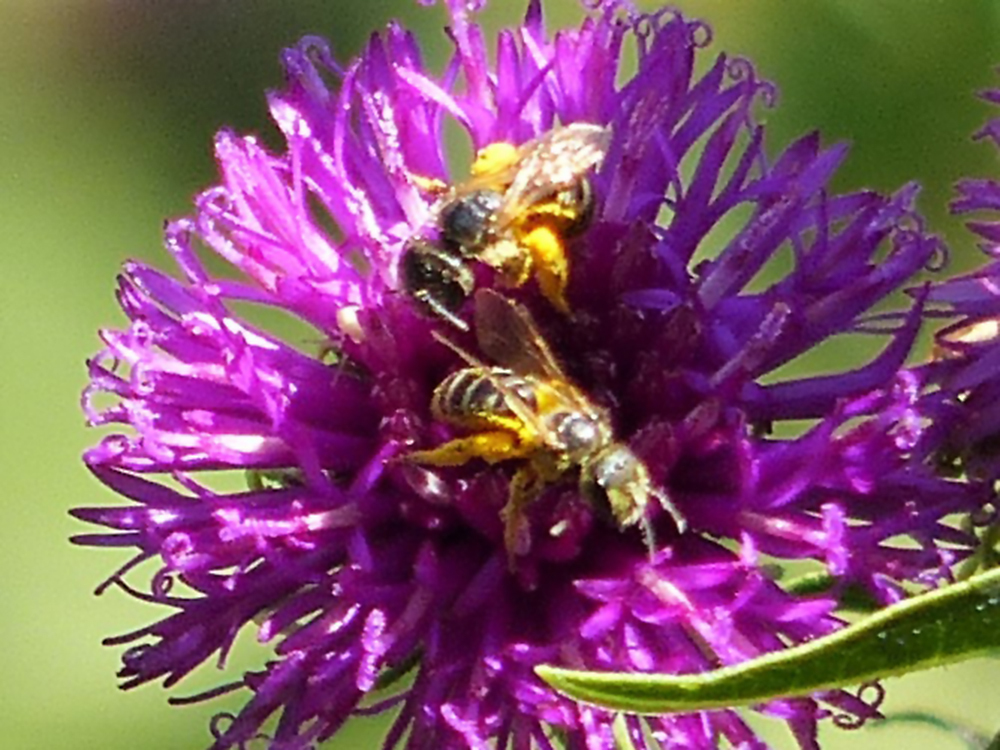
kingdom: Animalia
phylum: Arthropoda
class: Insecta
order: Hymenoptera
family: Halictidae
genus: Halictus
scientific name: Halictus ligatus
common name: Ligated furrow bee
